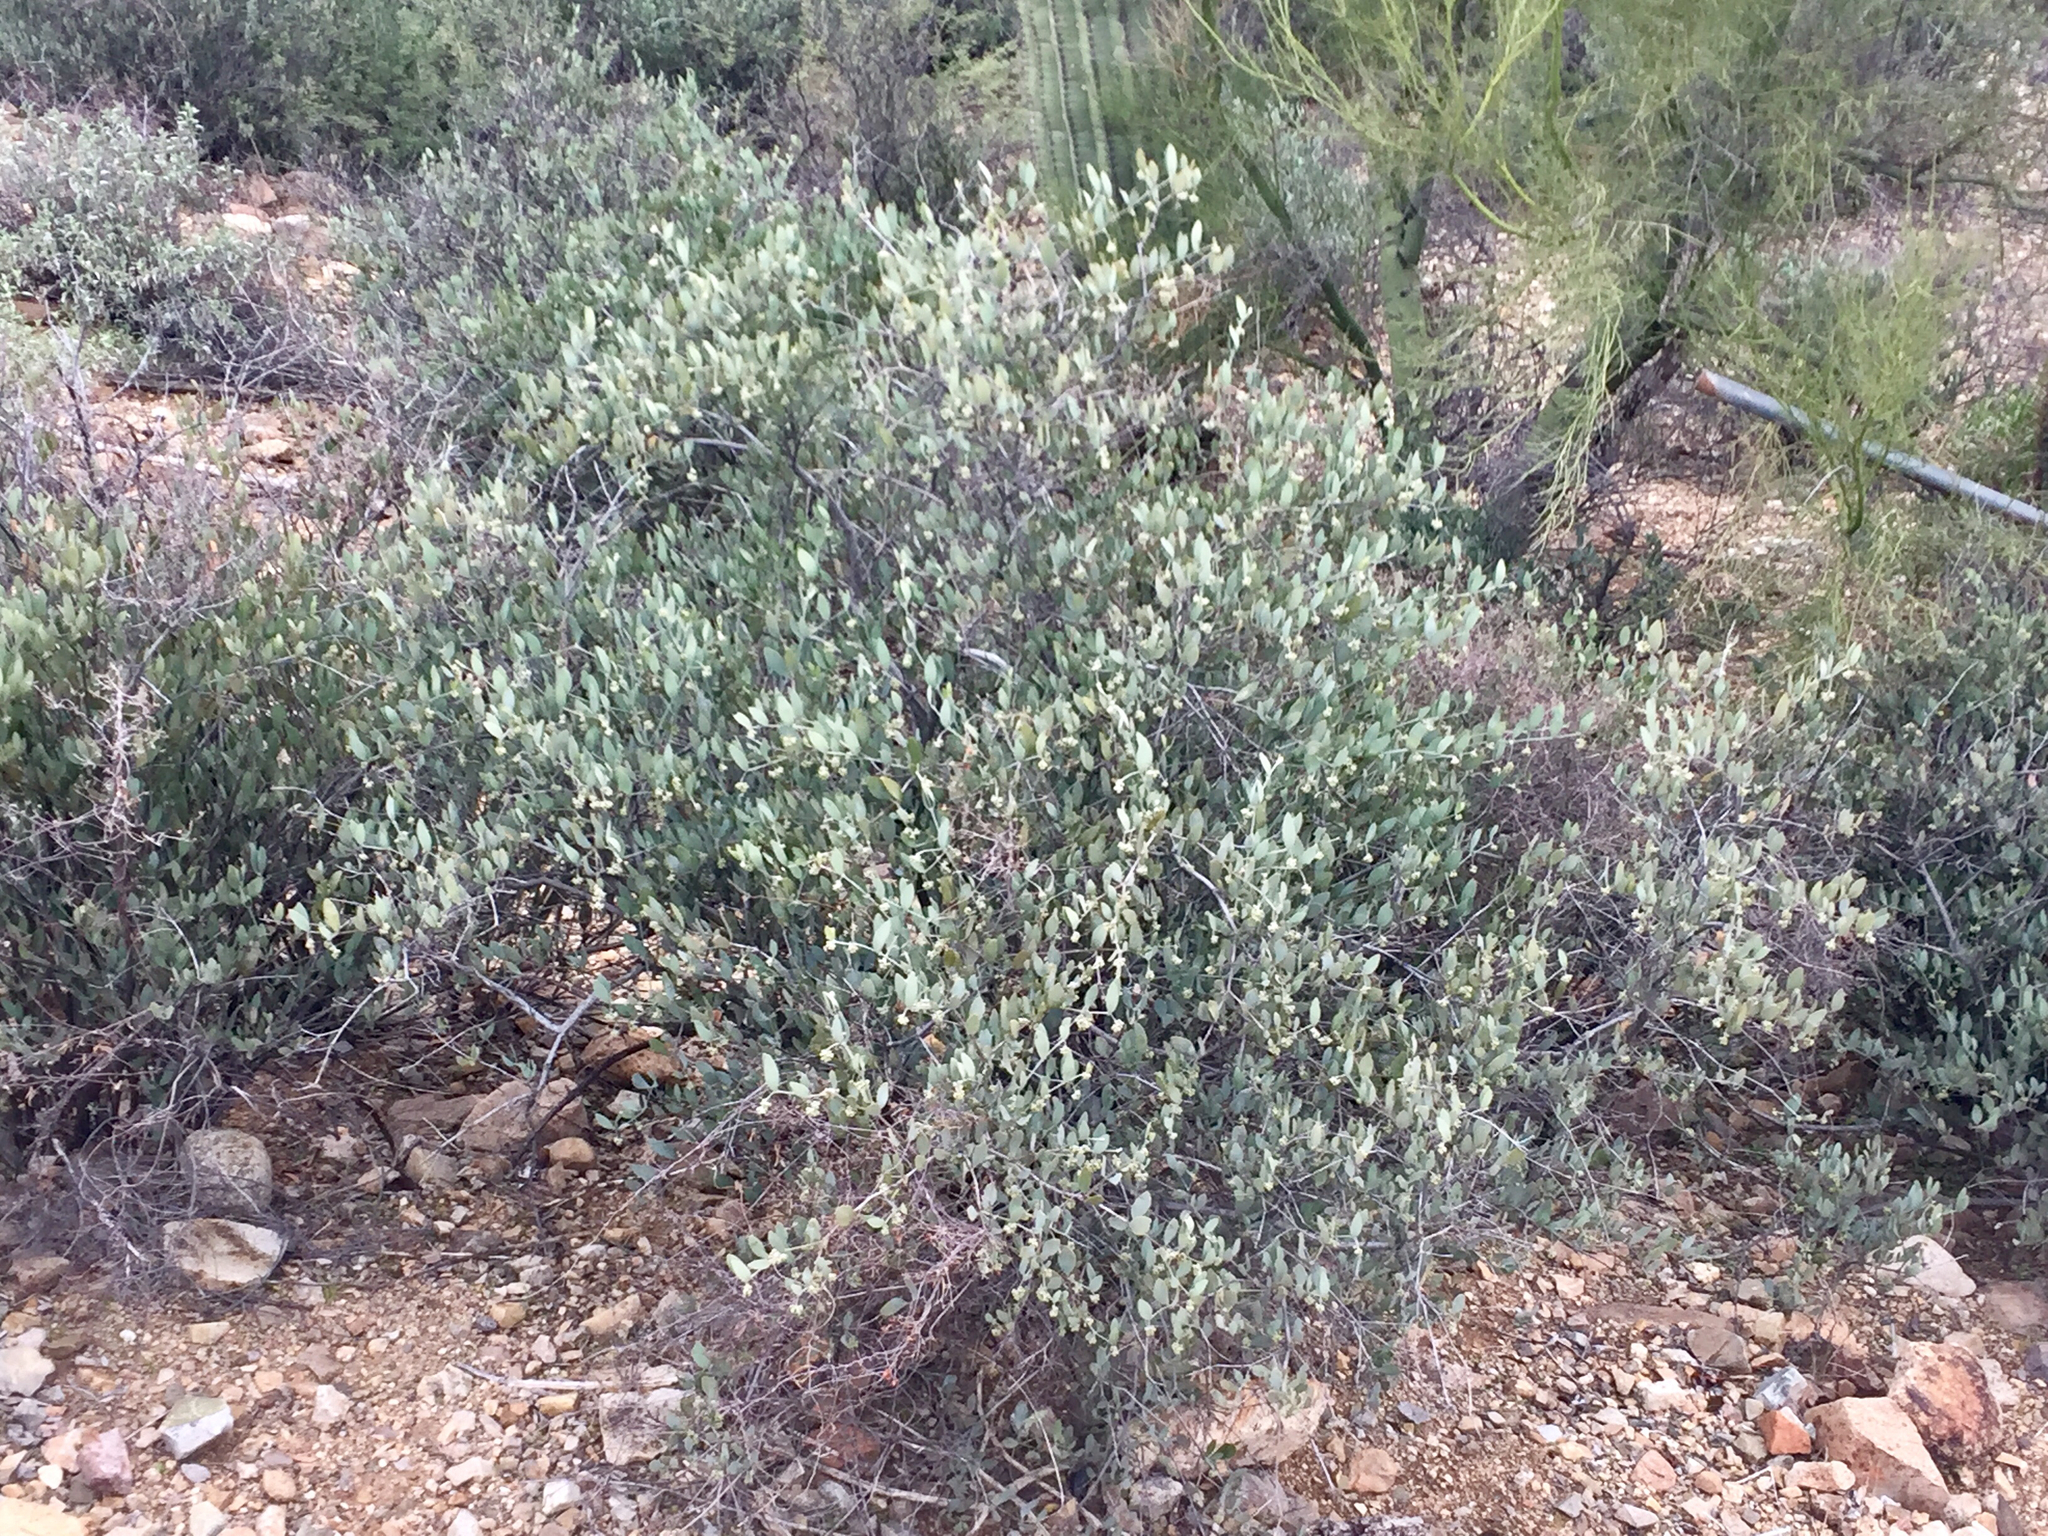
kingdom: Plantae
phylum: Tracheophyta
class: Magnoliopsida
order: Caryophyllales
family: Simmondsiaceae
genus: Simmondsia
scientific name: Simmondsia chinensis
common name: Jojoba
